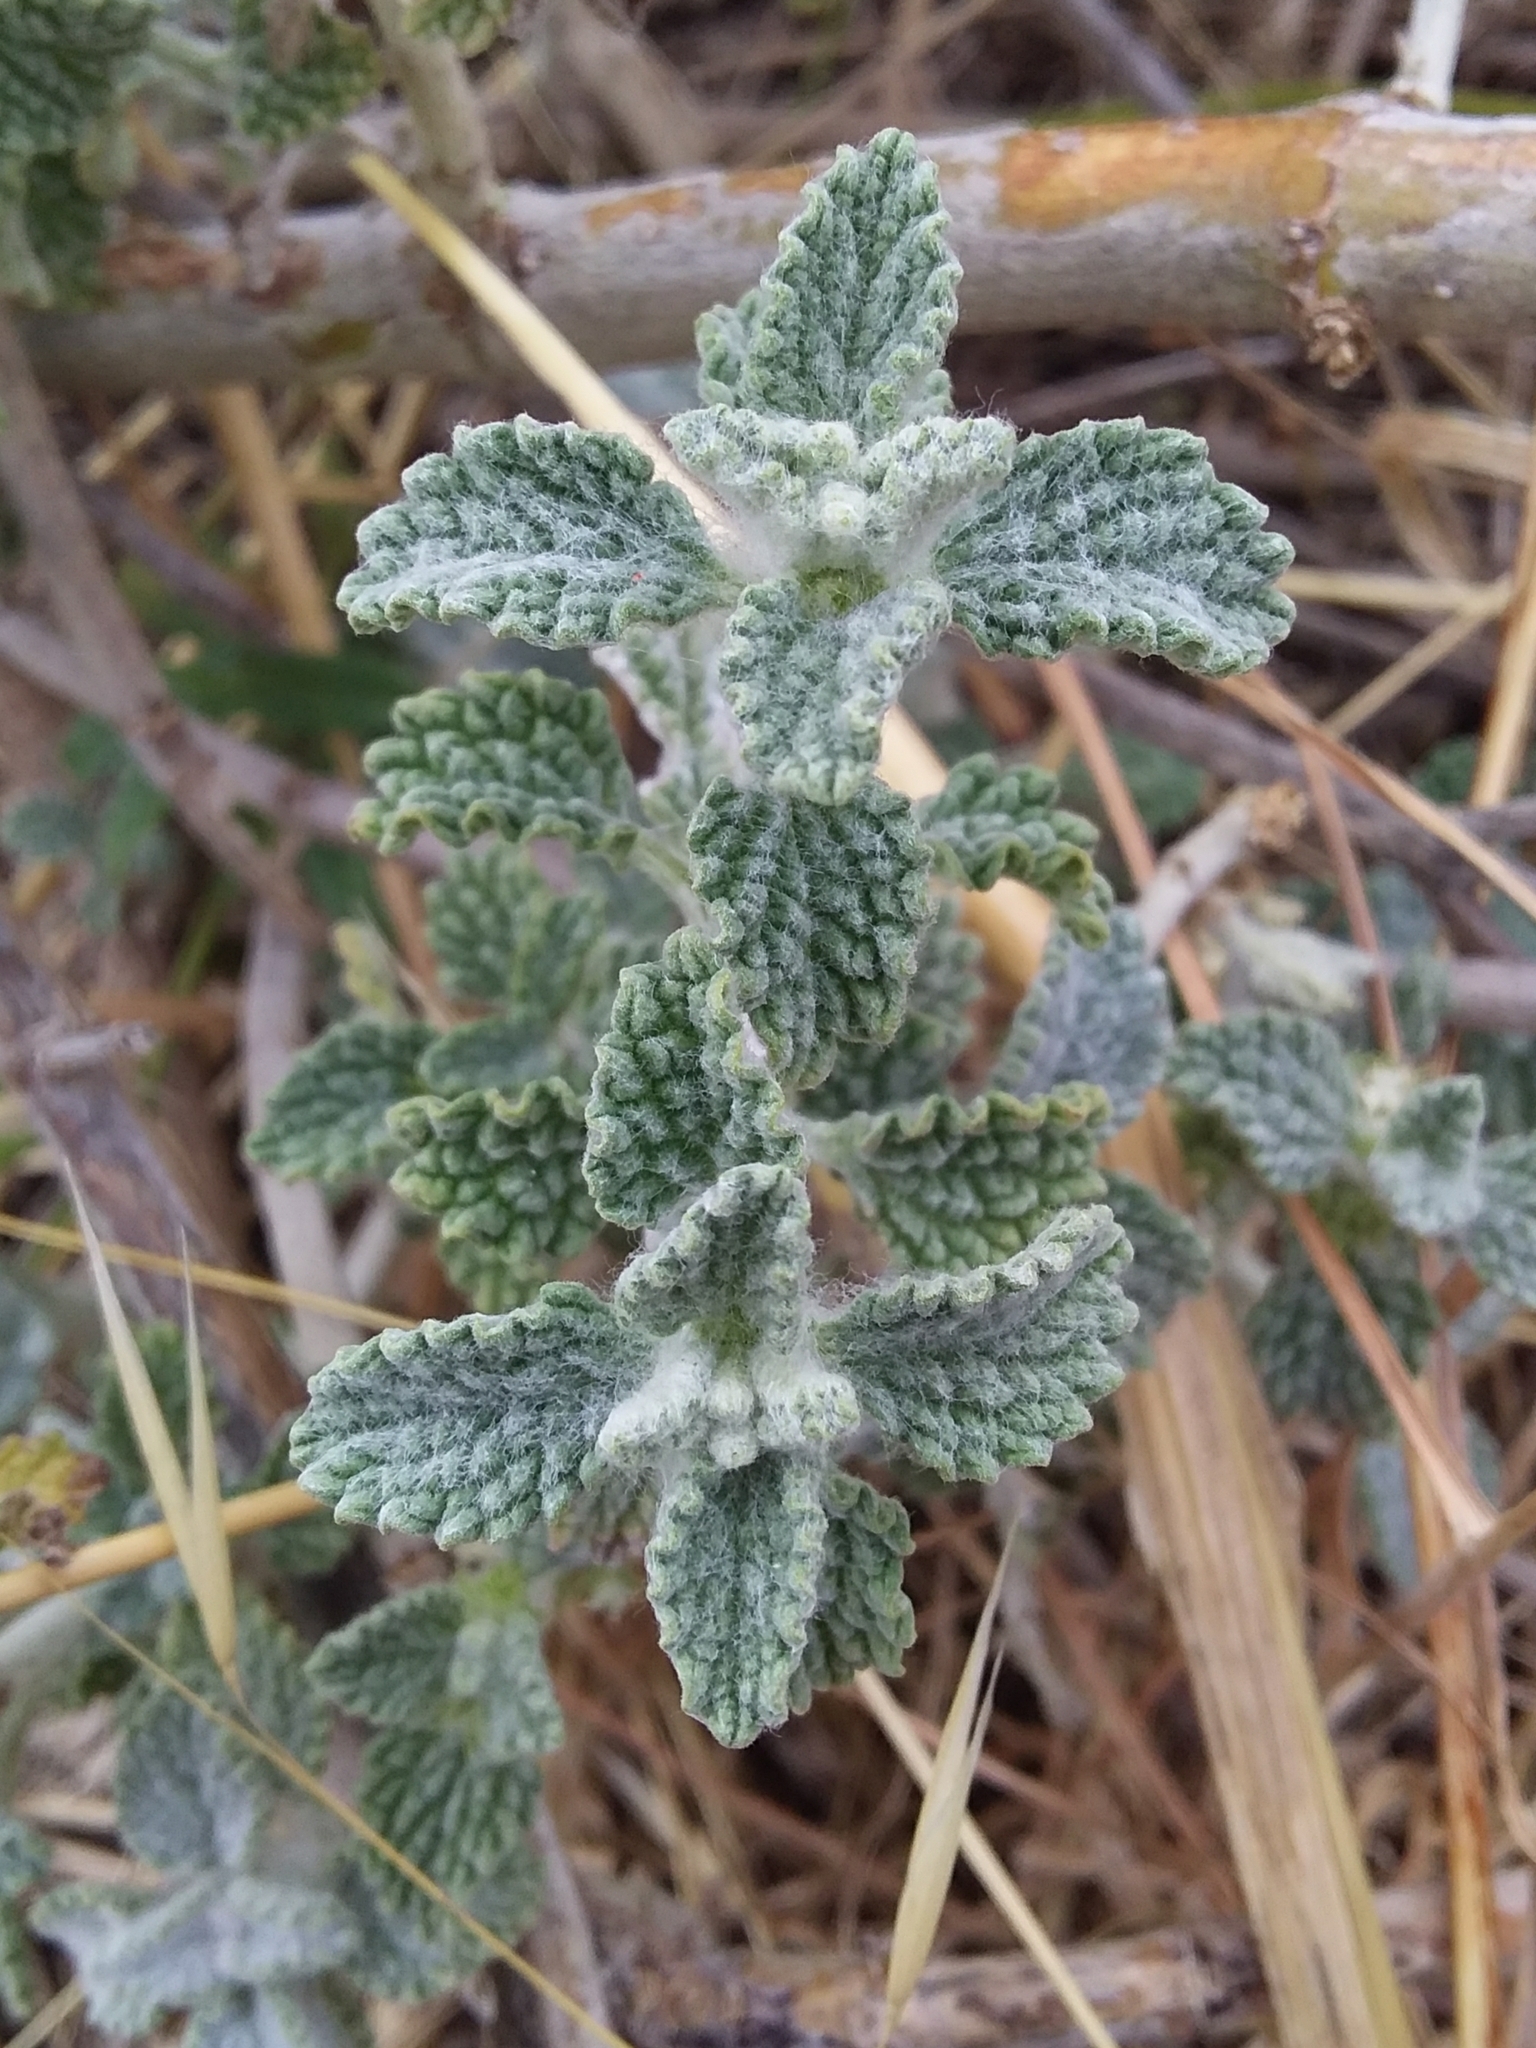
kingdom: Plantae
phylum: Tracheophyta
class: Magnoliopsida
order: Lamiales
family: Lamiaceae
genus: Marrubium
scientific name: Marrubium vulgare
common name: Horehound
